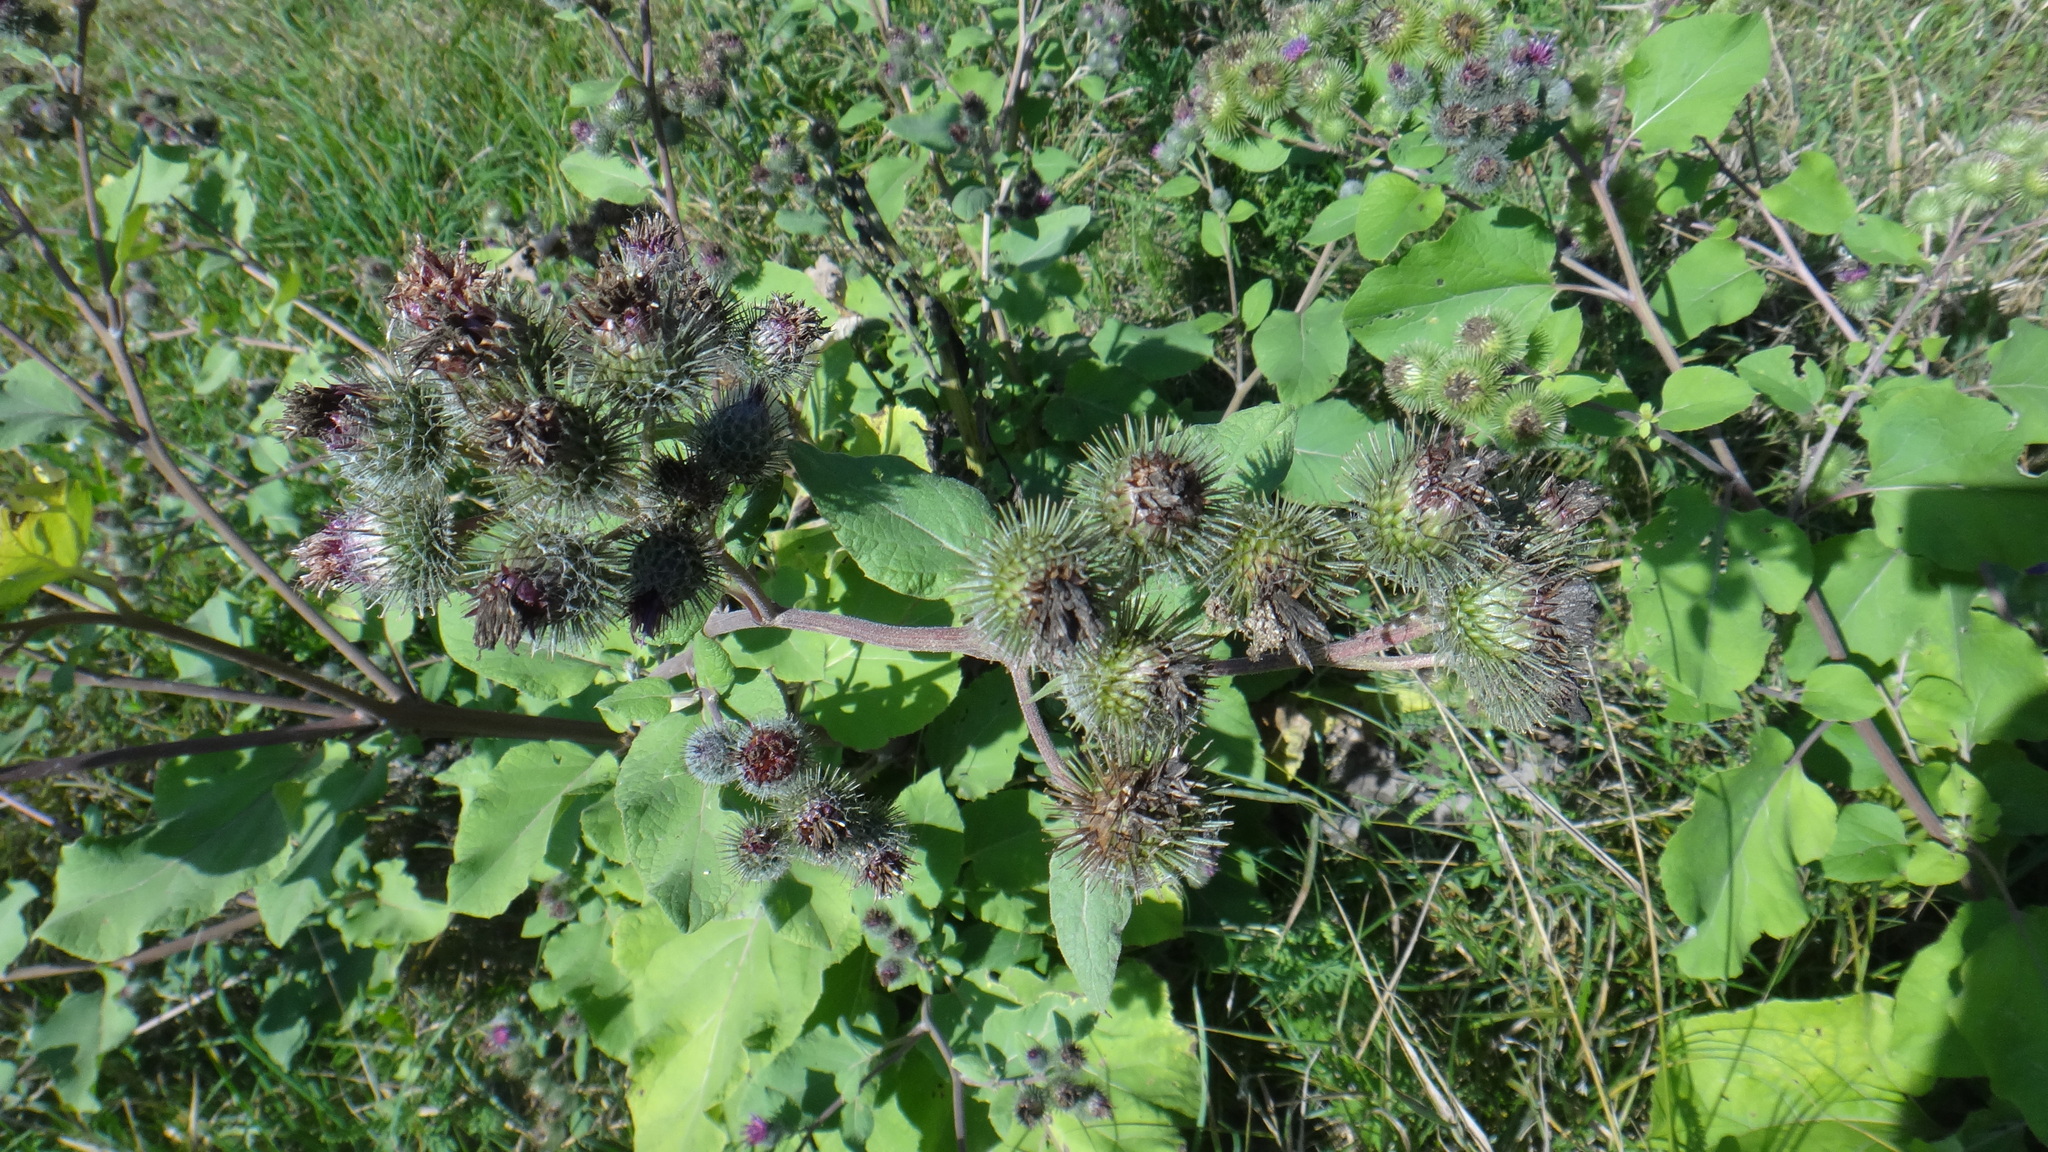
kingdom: Plantae
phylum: Tracheophyta
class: Magnoliopsida
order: Asterales
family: Asteraceae
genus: Arctium
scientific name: Arctium lappa
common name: Greater burdock
